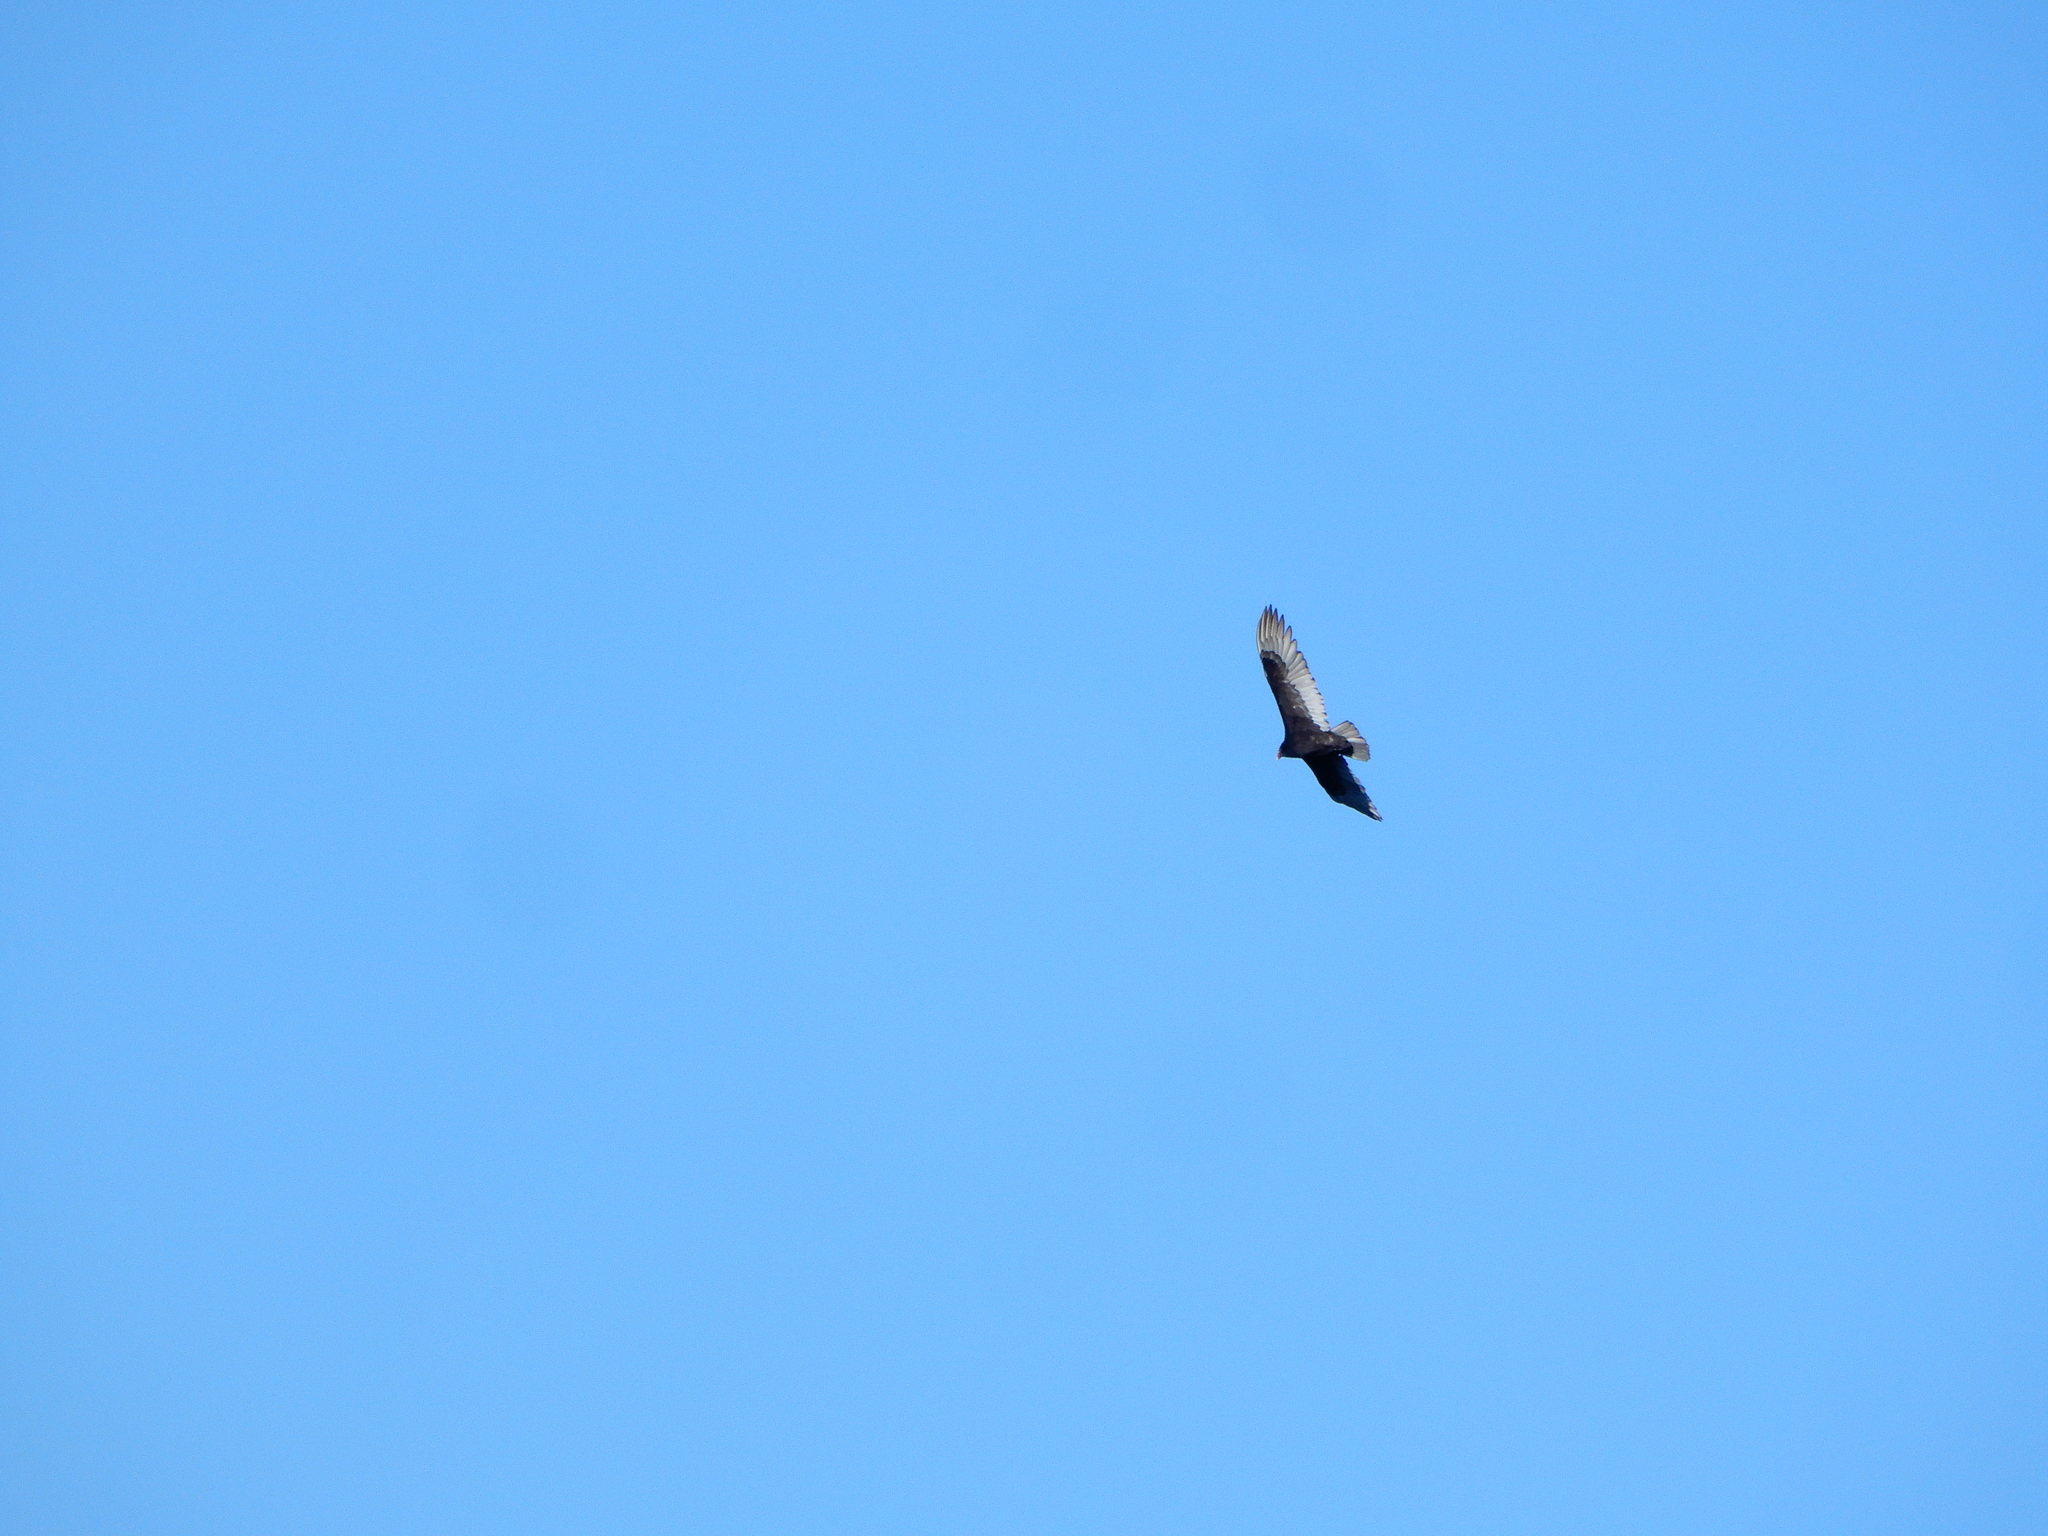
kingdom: Animalia
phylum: Chordata
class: Aves
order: Accipitriformes
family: Cathartidae
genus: Cathartes
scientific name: Cathartes aura
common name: Turkey vulture
